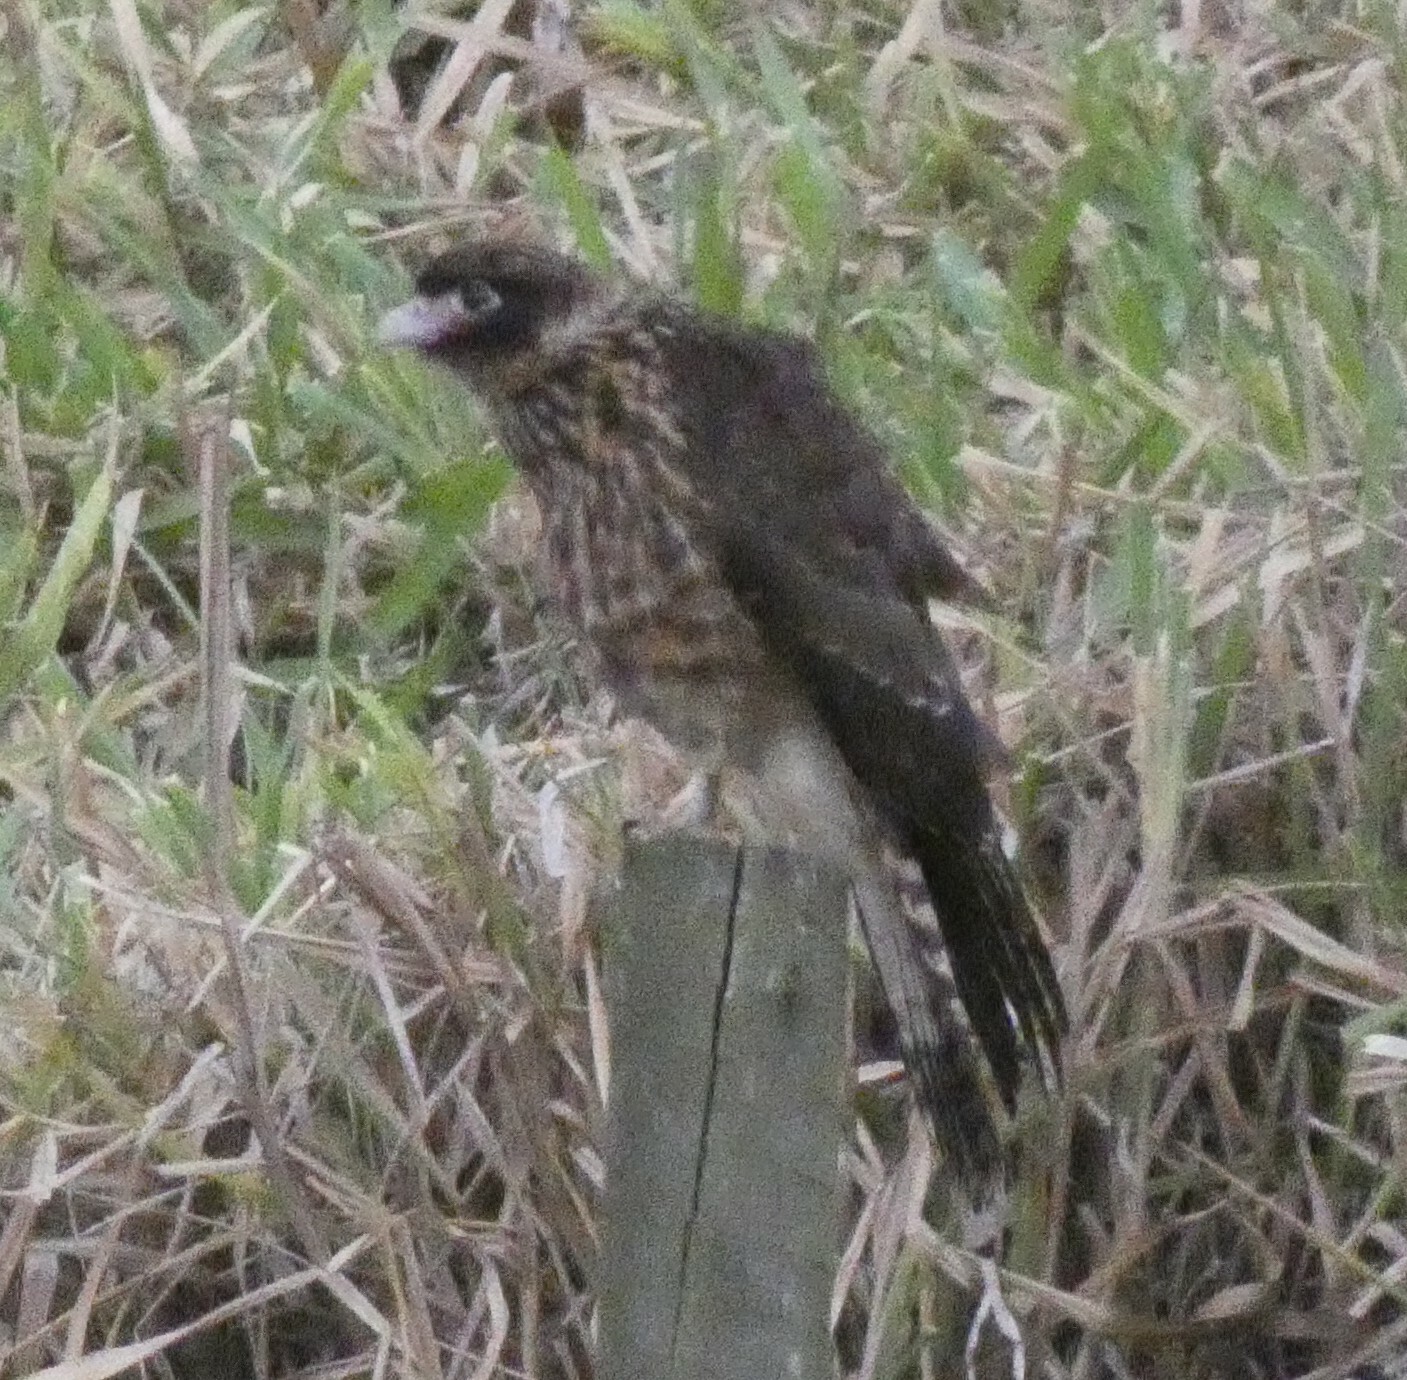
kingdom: Animalia
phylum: Chordata
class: Aves
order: Falconiformes
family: Falconidae
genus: Daptrius
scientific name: Daptrius
